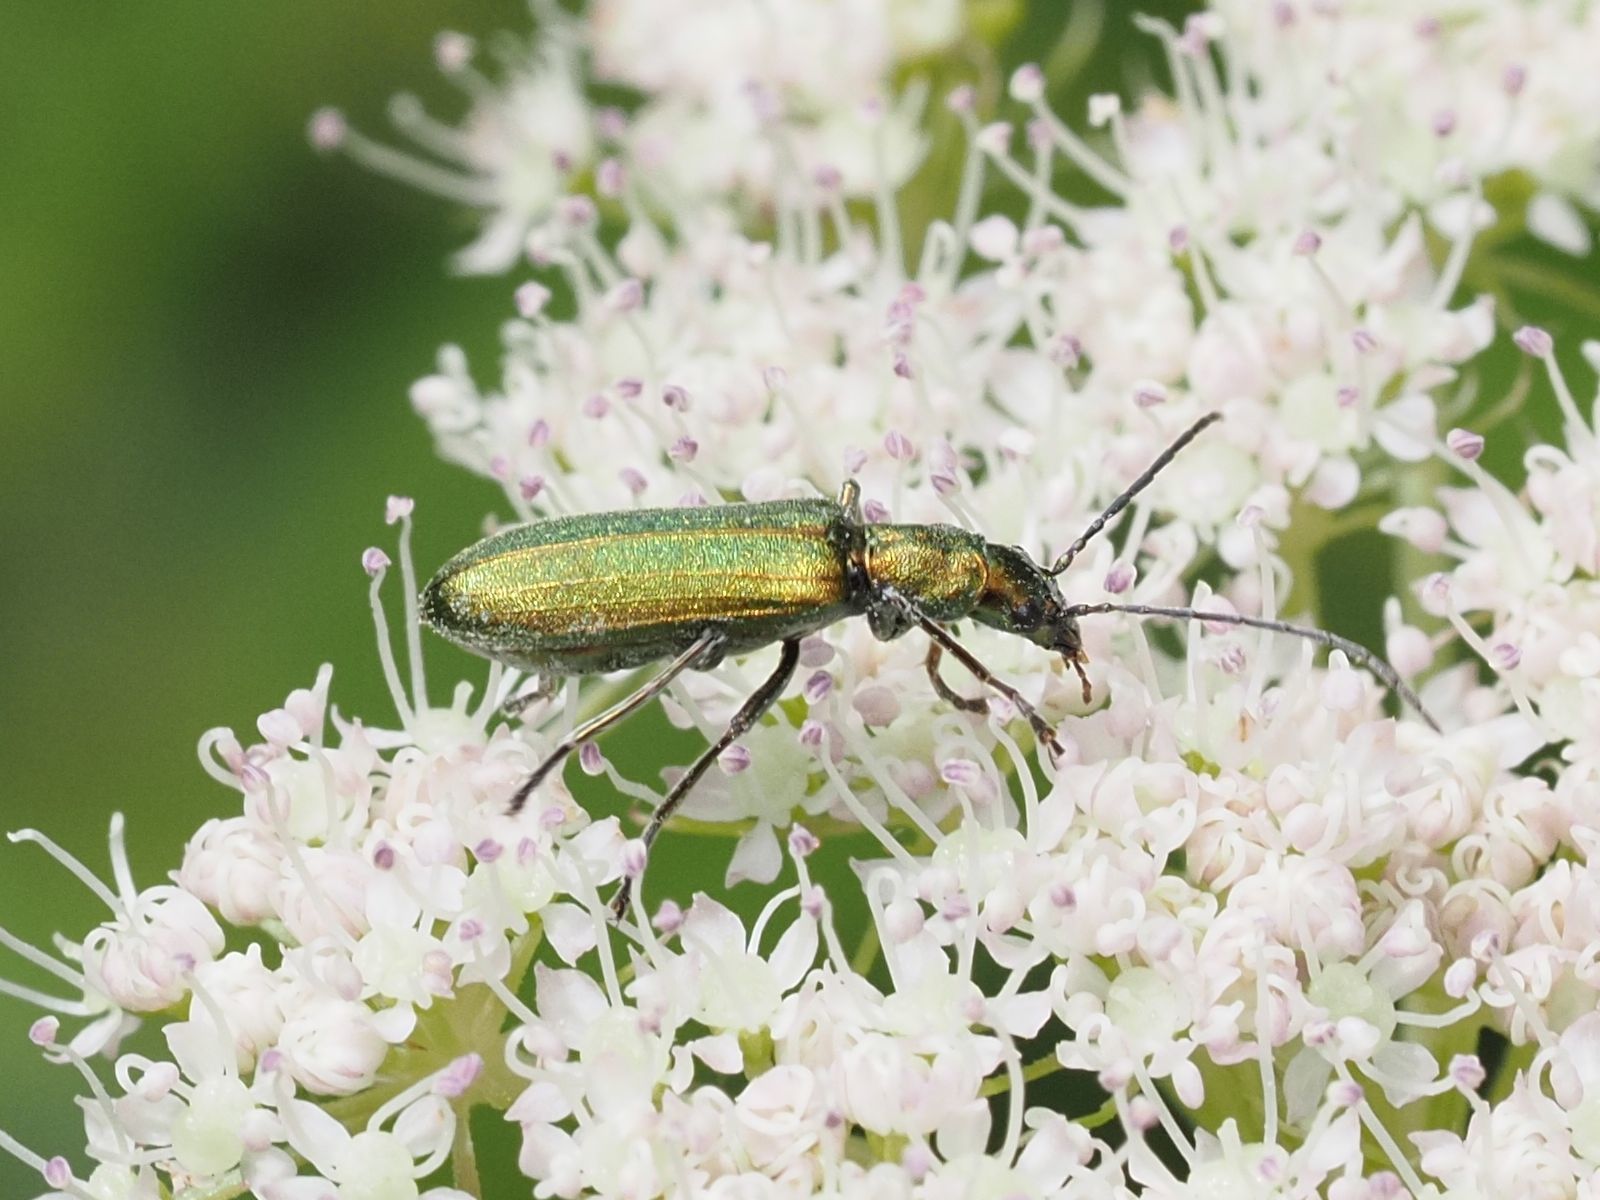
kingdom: Animalia
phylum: Arthropoda
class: Insecta
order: Coleoptera
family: Oedemeridae
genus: Chrysanthia
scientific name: Chrysanthia viridissima
